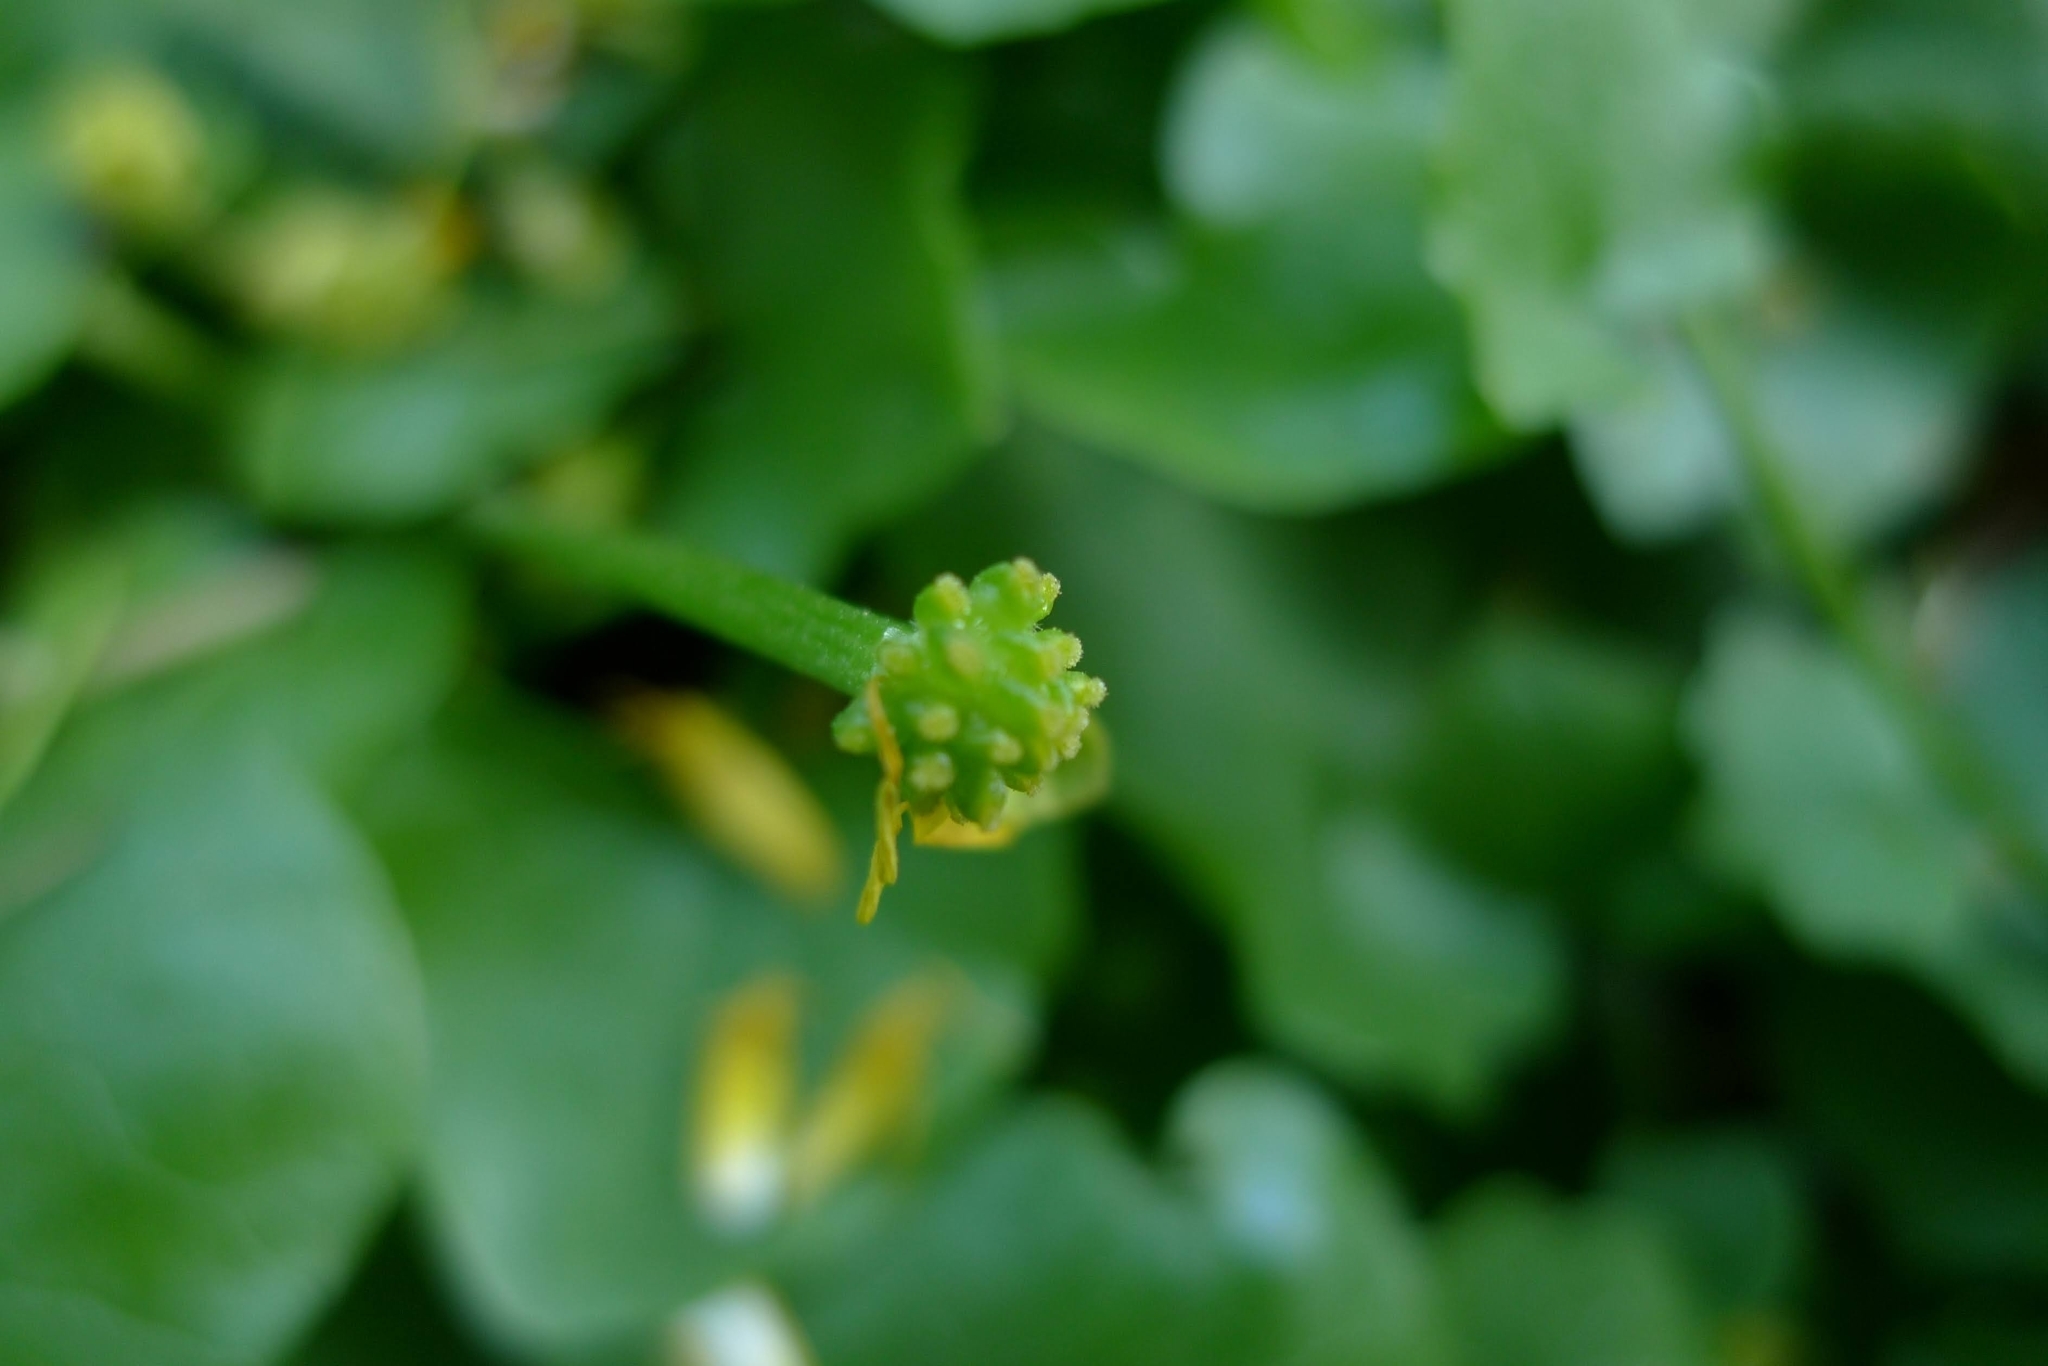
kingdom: Plantae
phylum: Tracheophyta
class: Magnoliopsida
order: Ranunculales
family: Ranunculaceae
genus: Ficaria
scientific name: Ficaria verna
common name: Lesser celandine
